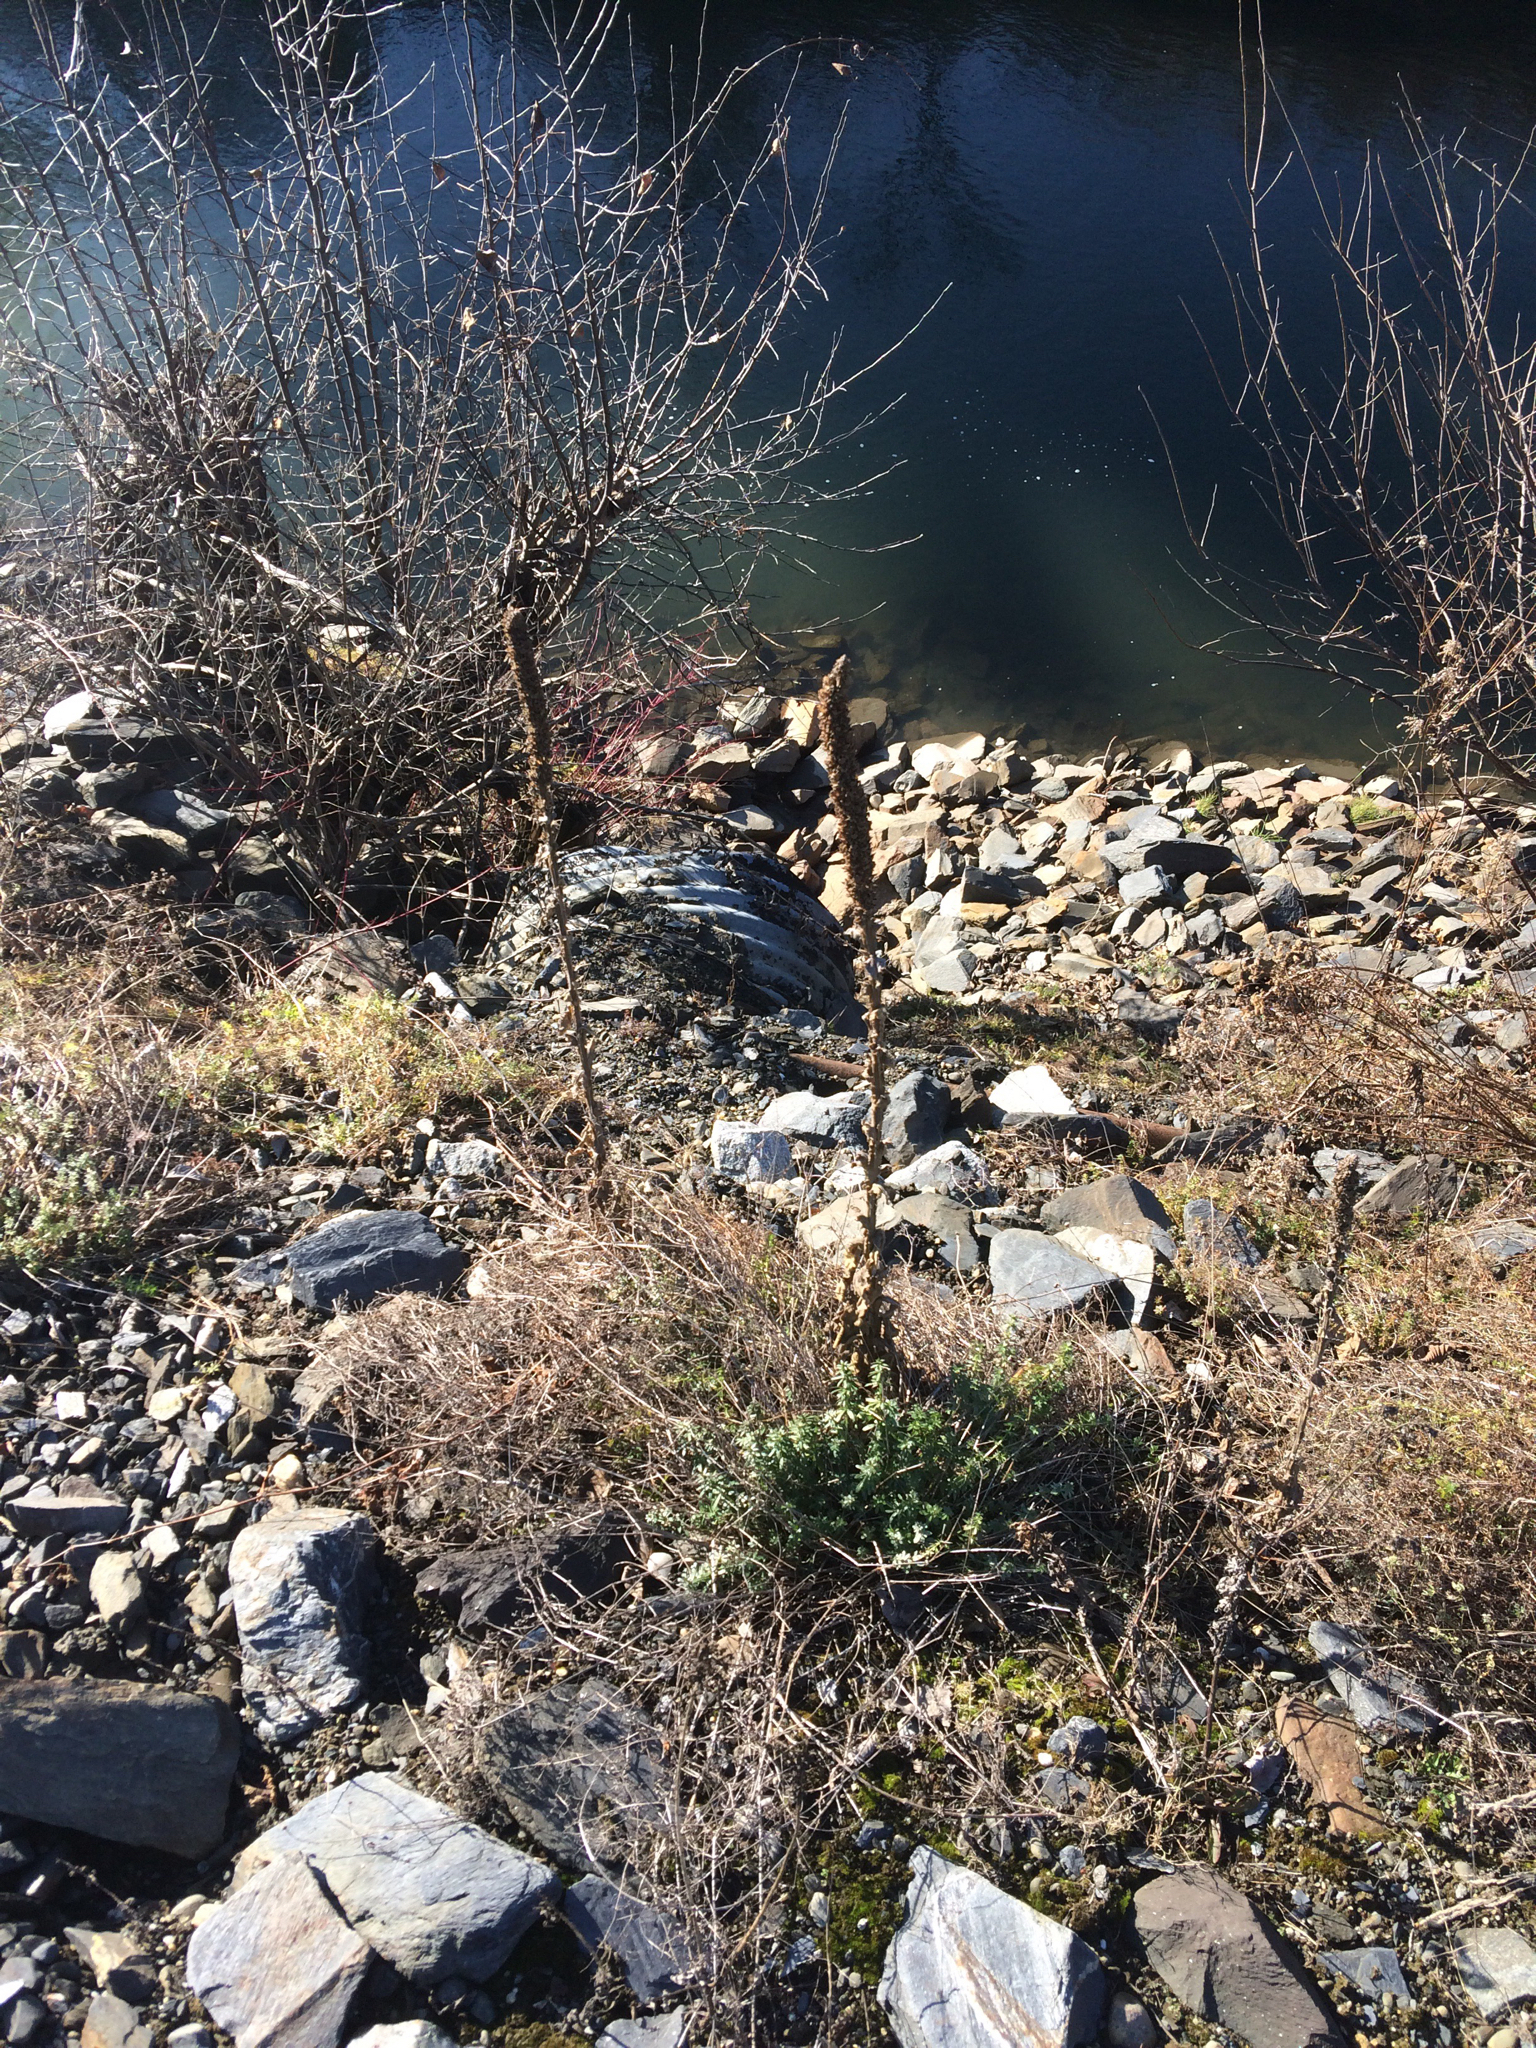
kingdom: Plantae
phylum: Tracheophyta
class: Magnoliopsida
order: Lamiales
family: Scrophulariaceae
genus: Verbascum
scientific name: Verbascum thapsus
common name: Common mullein
